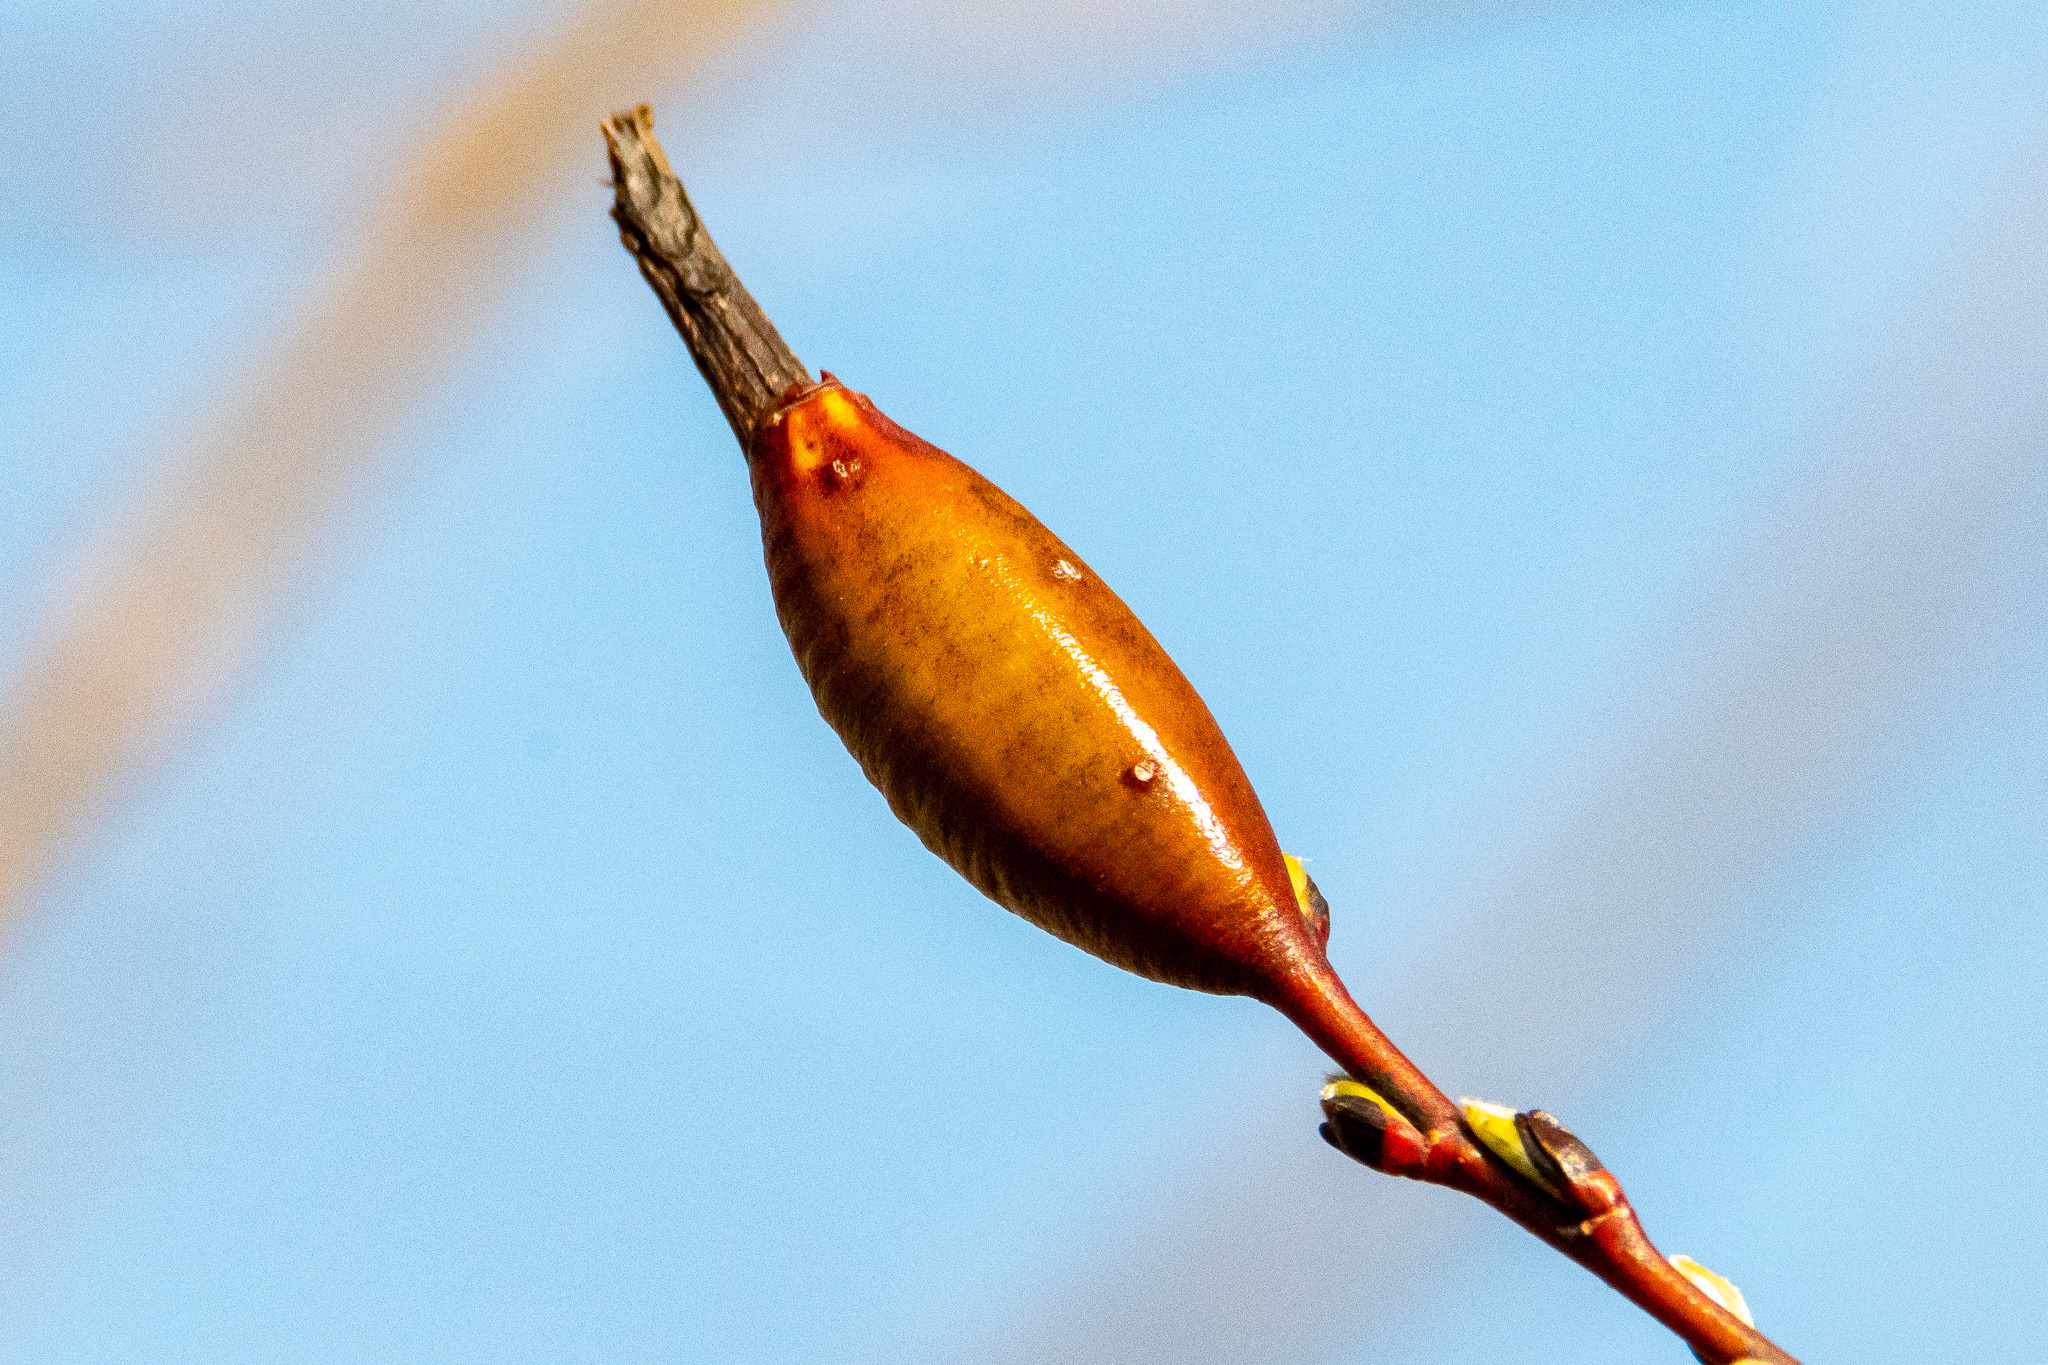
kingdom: Animalia
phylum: Arthropoda
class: Insecta
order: Diptera
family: Cecidomyiidae
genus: Thecodiplosis
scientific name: Thecodiplosis pinirigidae
